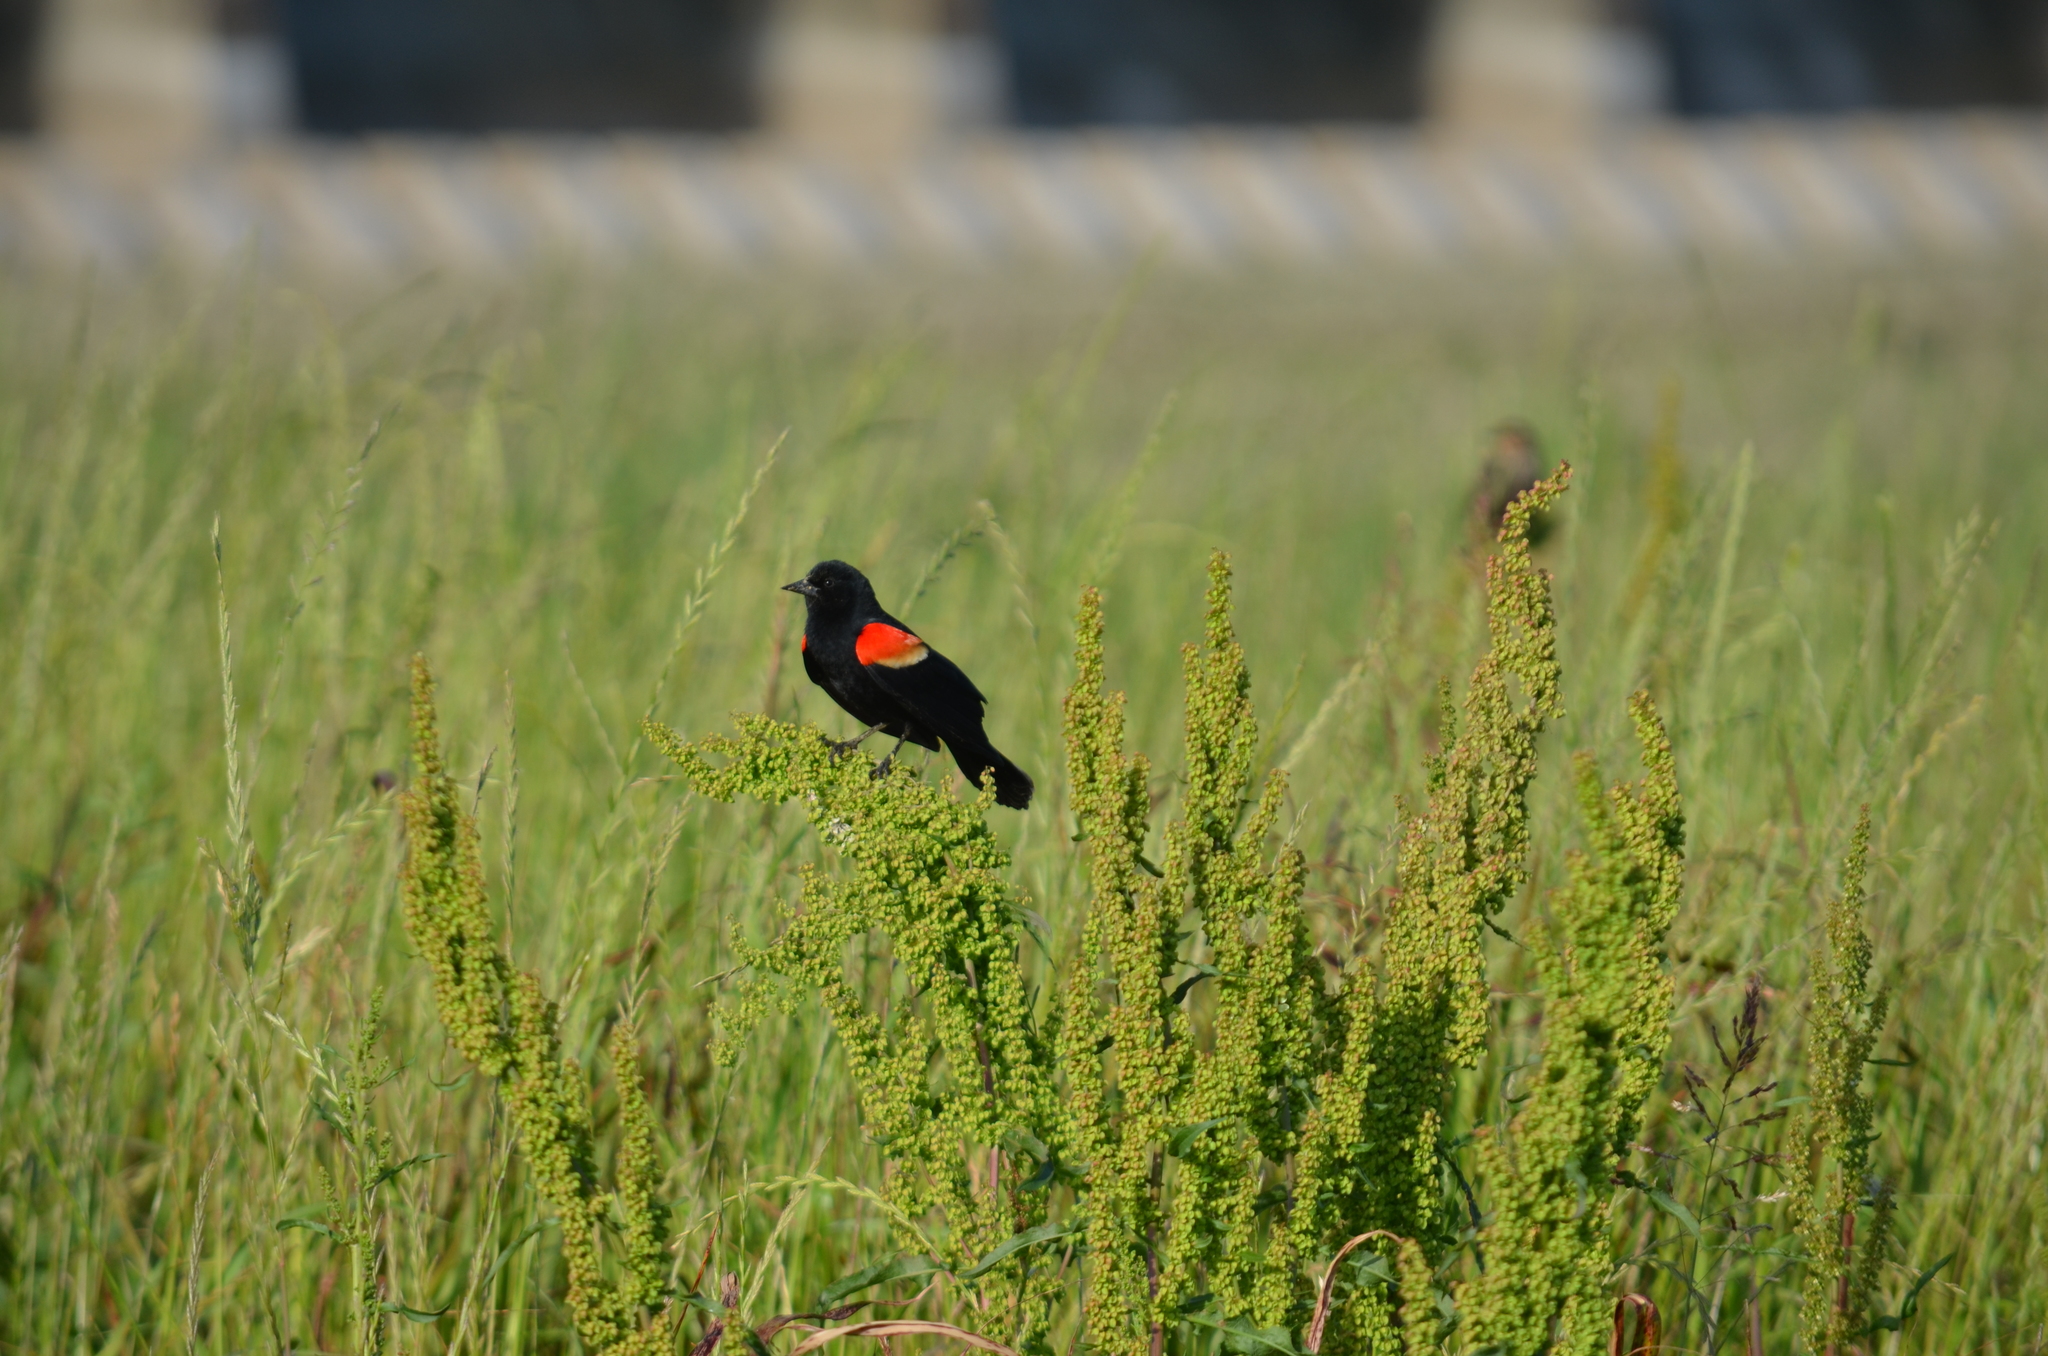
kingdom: Animalia
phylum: Chordata
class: Aves
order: Passeriformes
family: Icteridae
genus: Agelaius
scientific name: Agelaius phoeniceus
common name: Red-winged blackbird
